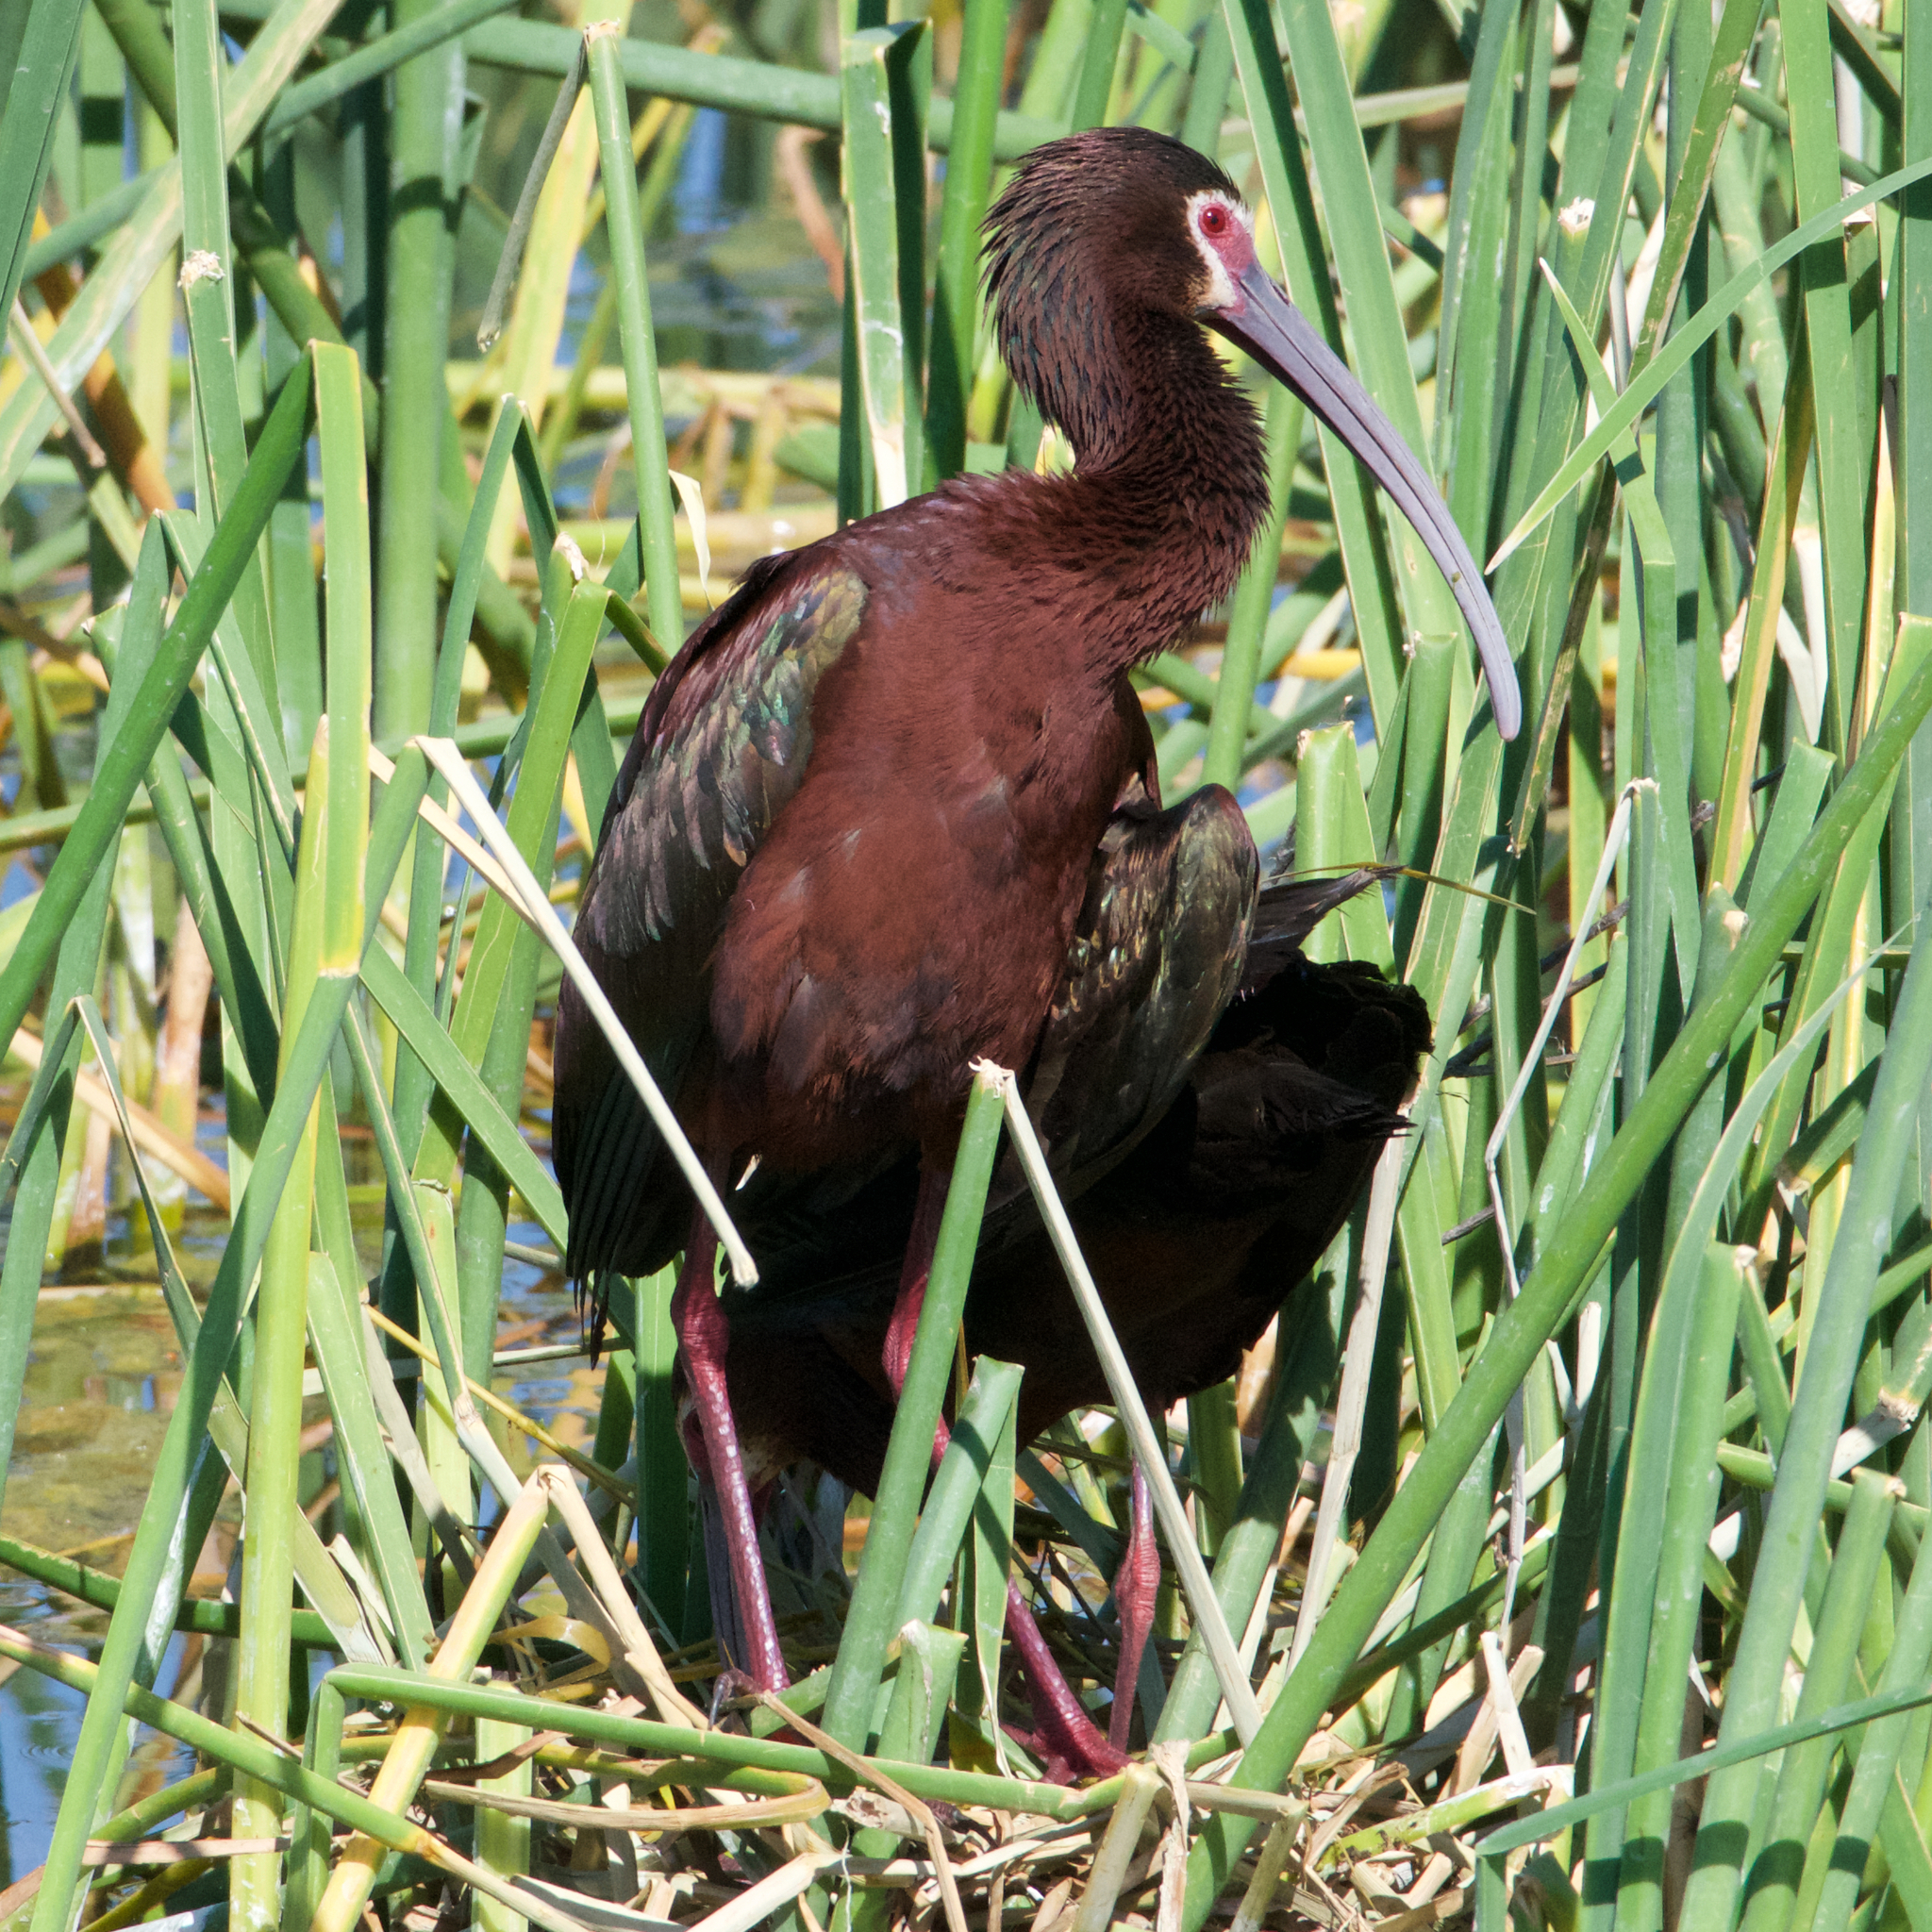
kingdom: Animalia
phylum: Chordata
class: Aves
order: Pelecaniformes
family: Threskiornithidae
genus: Plegadis
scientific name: Plegadis chihi
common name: White-faced ibis
